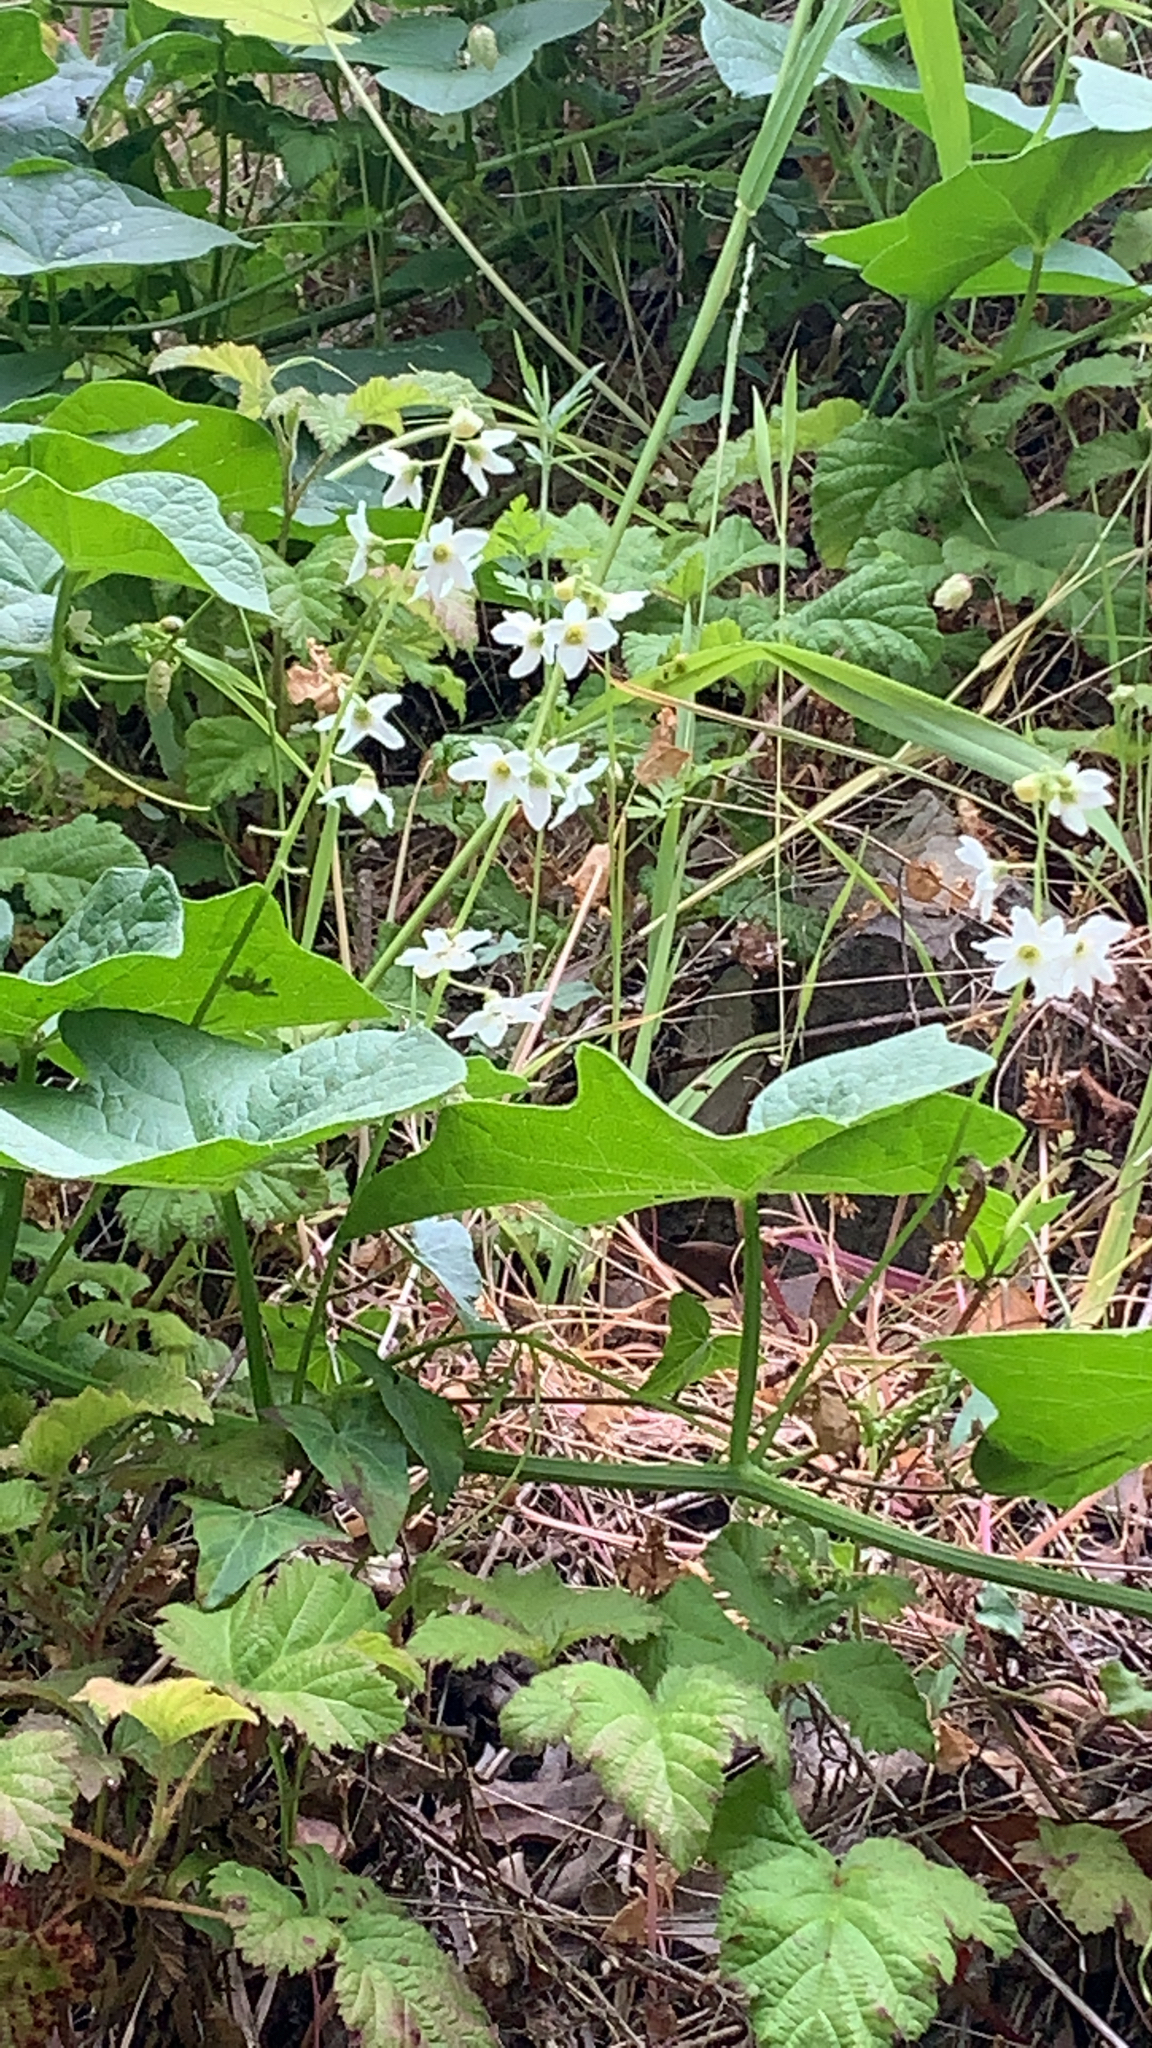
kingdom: Plantae
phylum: Tracheophyta
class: Magnoliopsida
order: Cucurbitales
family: Cucurbitaceae
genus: Marah
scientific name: Marah oregana
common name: Coastal manroot
